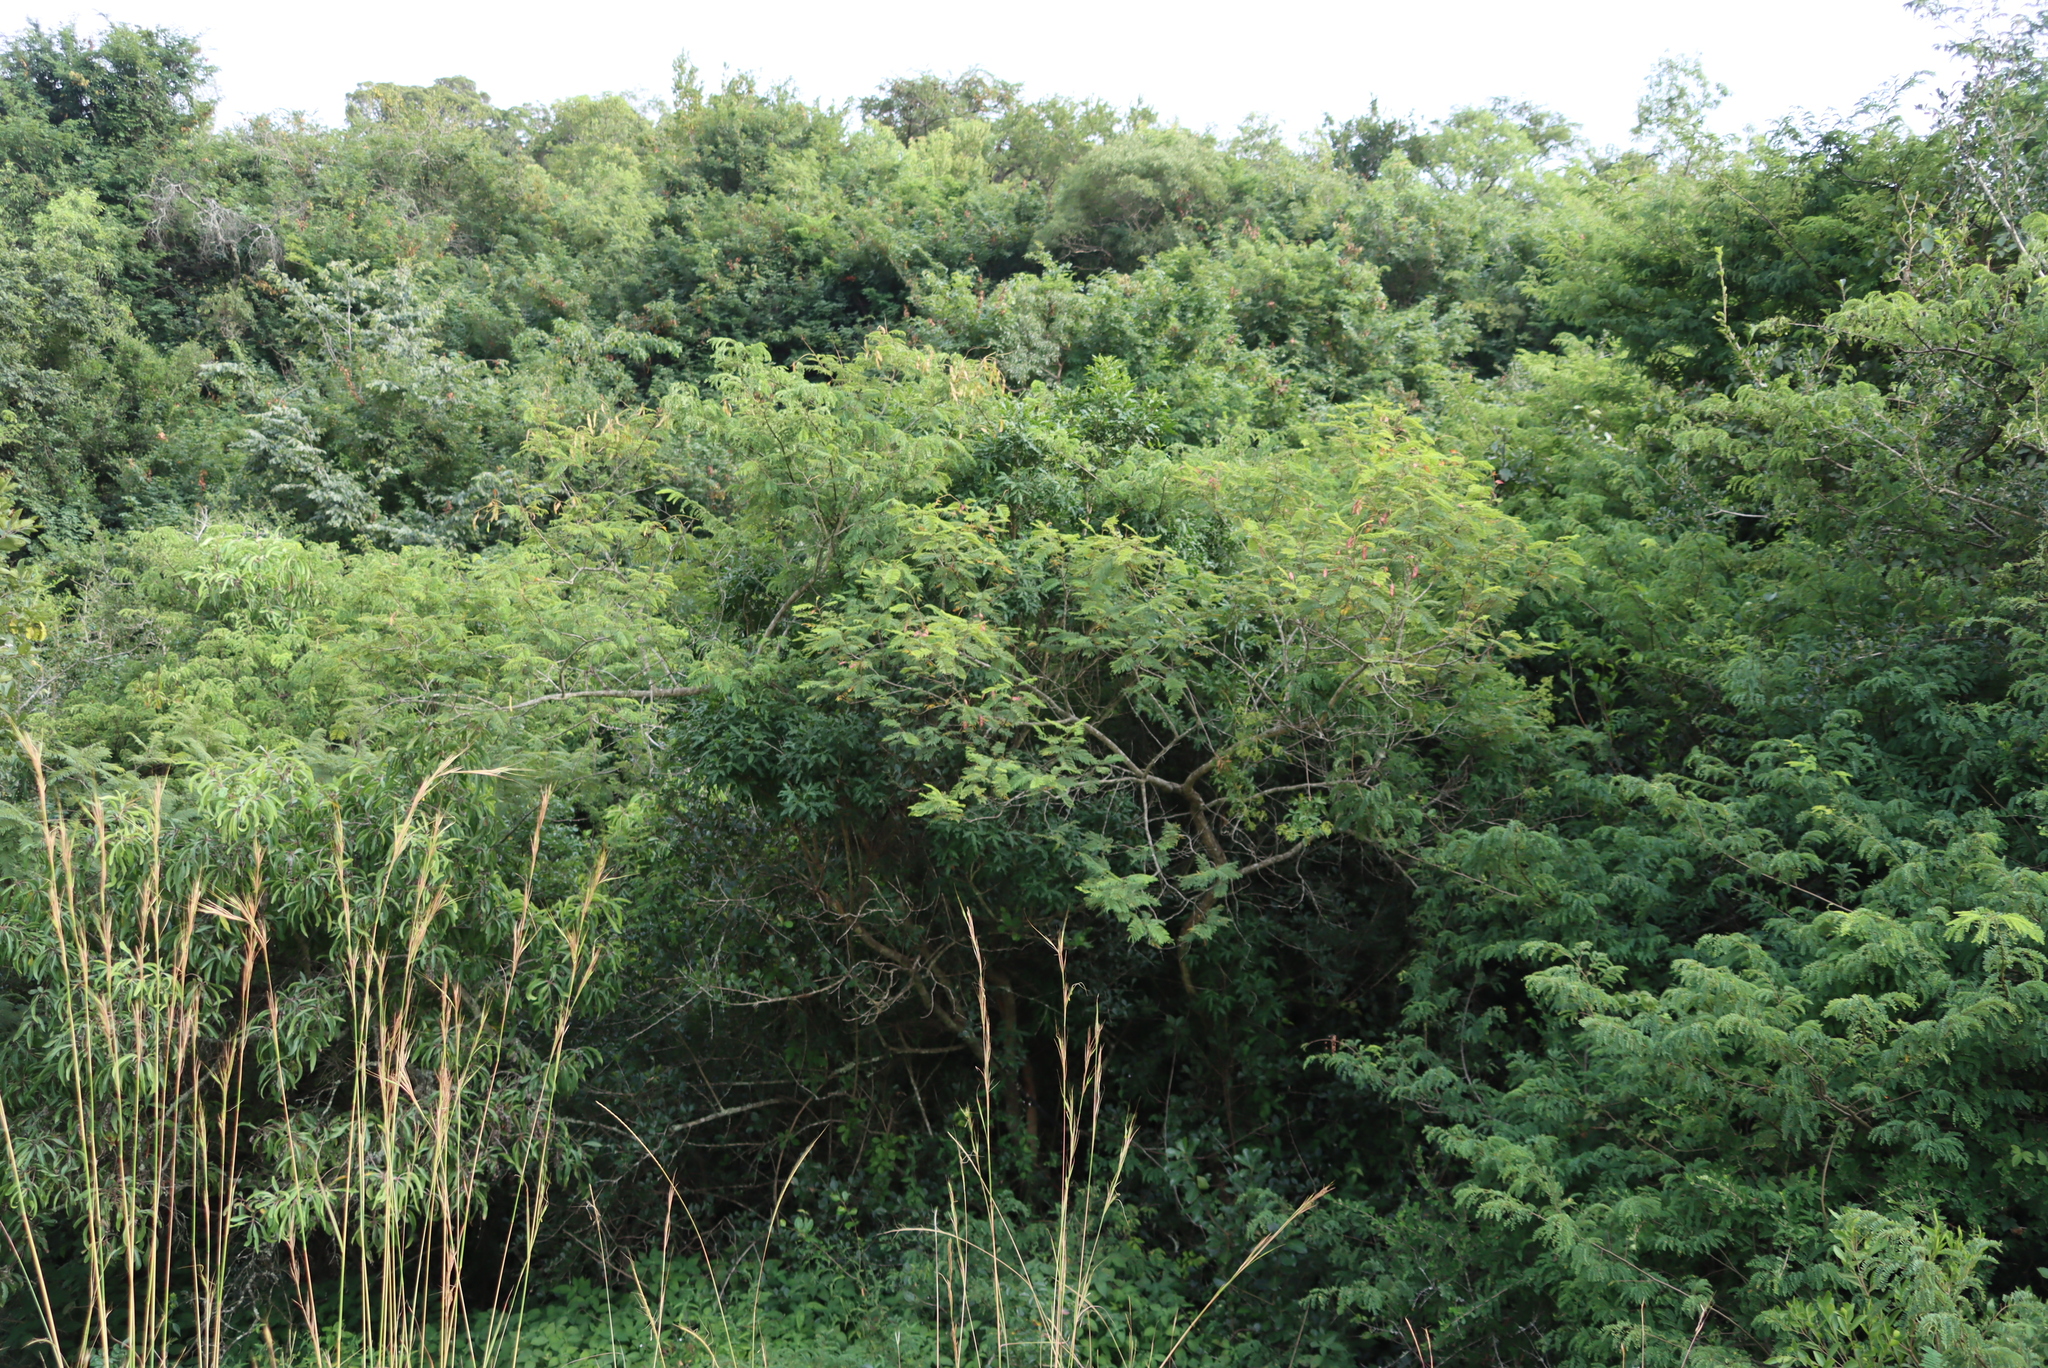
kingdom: Plantae
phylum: Tracheophyta
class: Magnoliopsida
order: Fabales
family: Fabaceae
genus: Senegalia
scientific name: Senegalia ataxacantha
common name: Flame acacia
